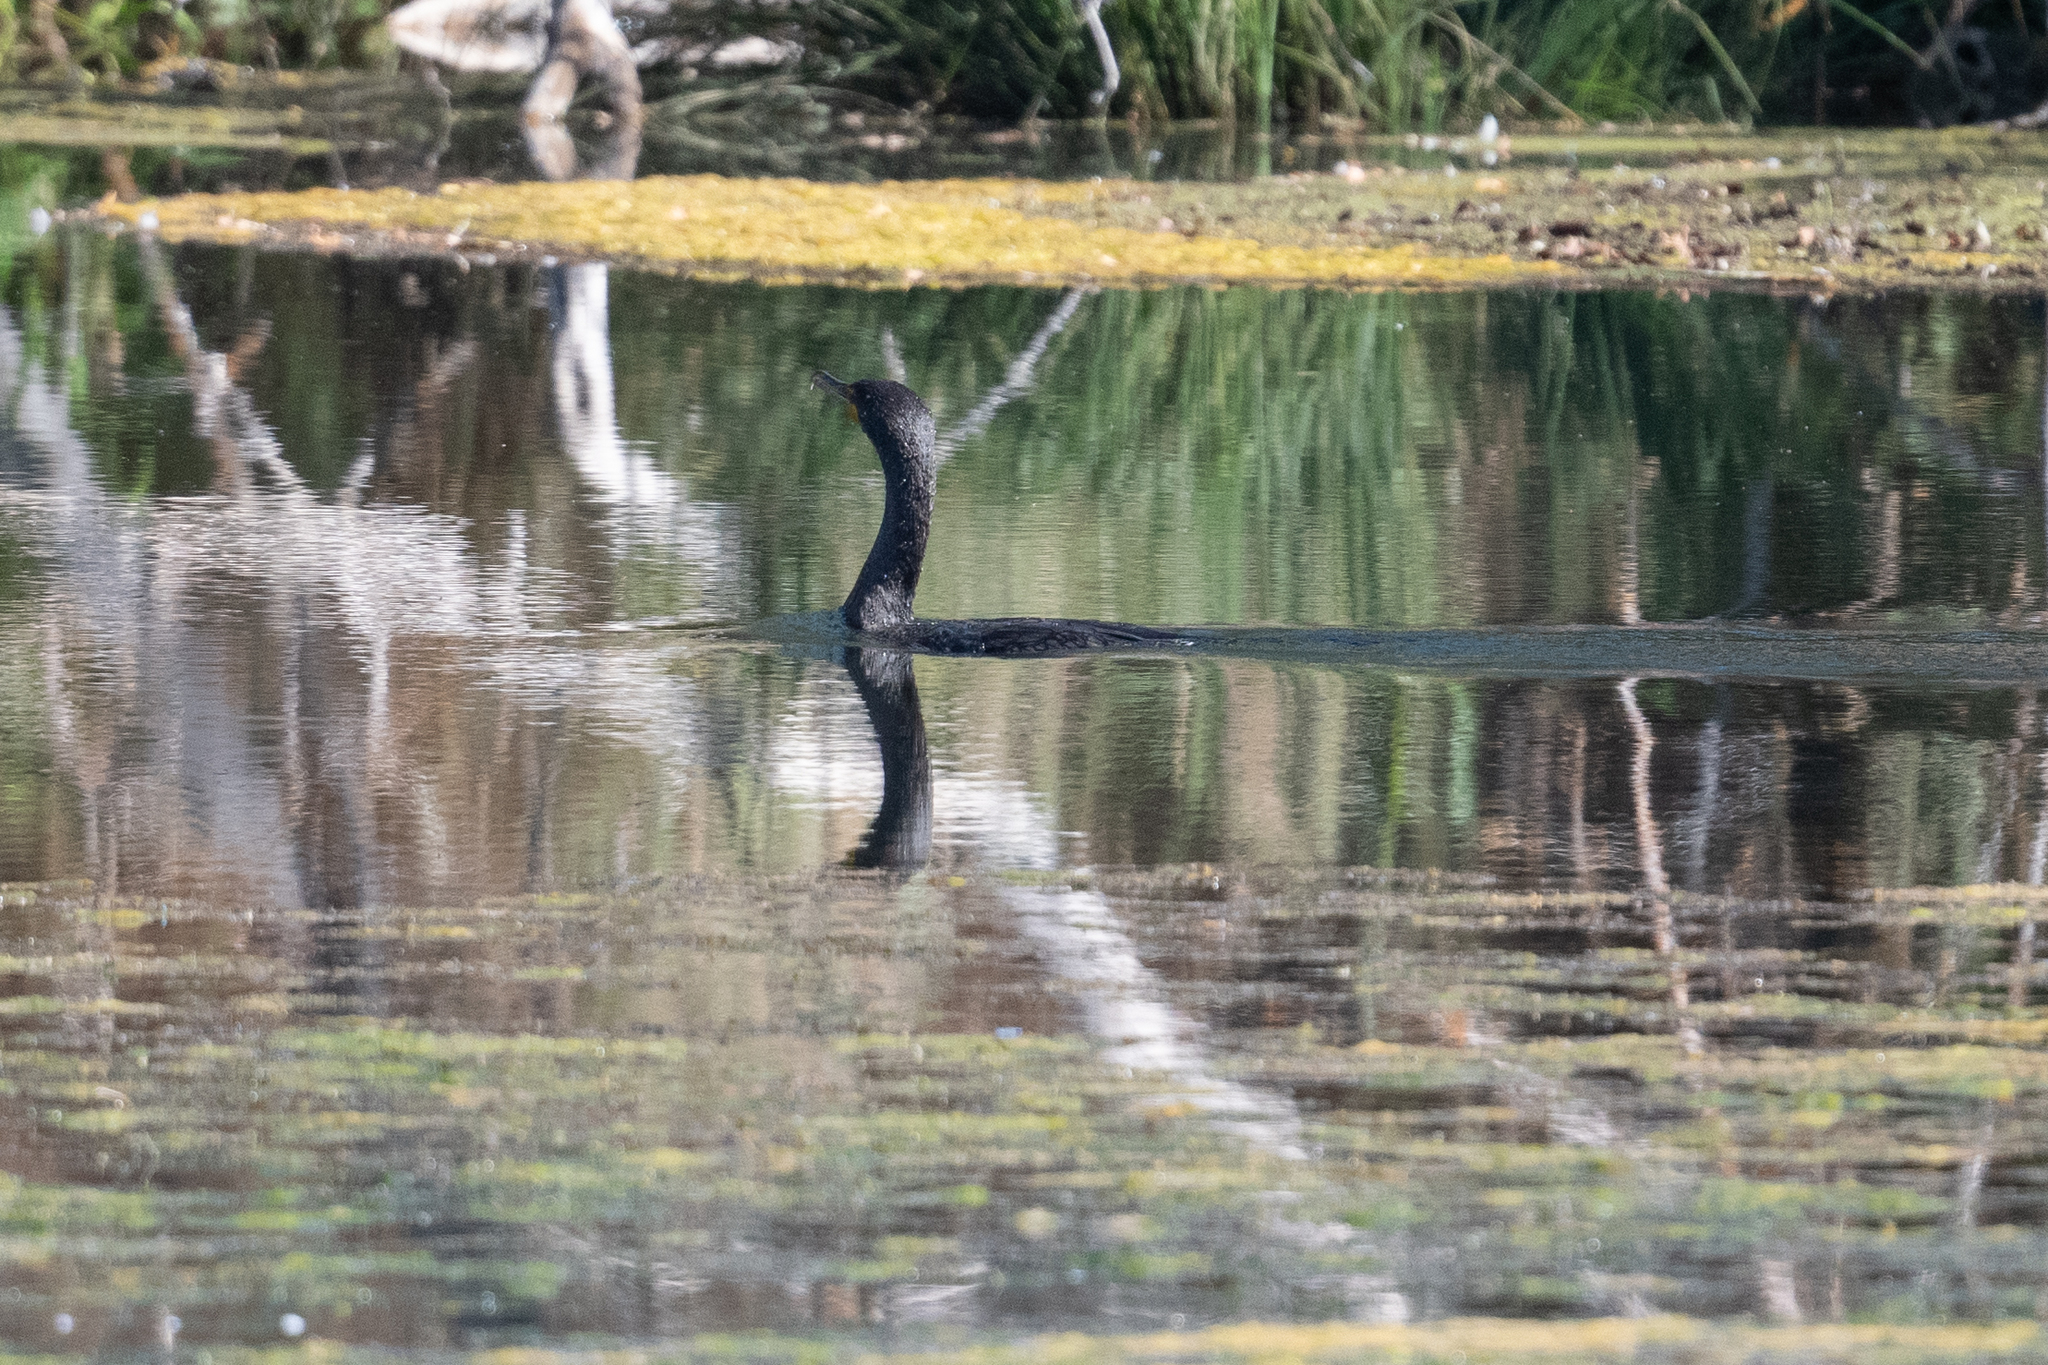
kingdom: Animalia
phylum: Chordata
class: Aves
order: Suliformes
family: Phalacrocoracidae
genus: Phalacrocorax
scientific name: Phalacrocorax auritus
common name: Double-crested cormorant
